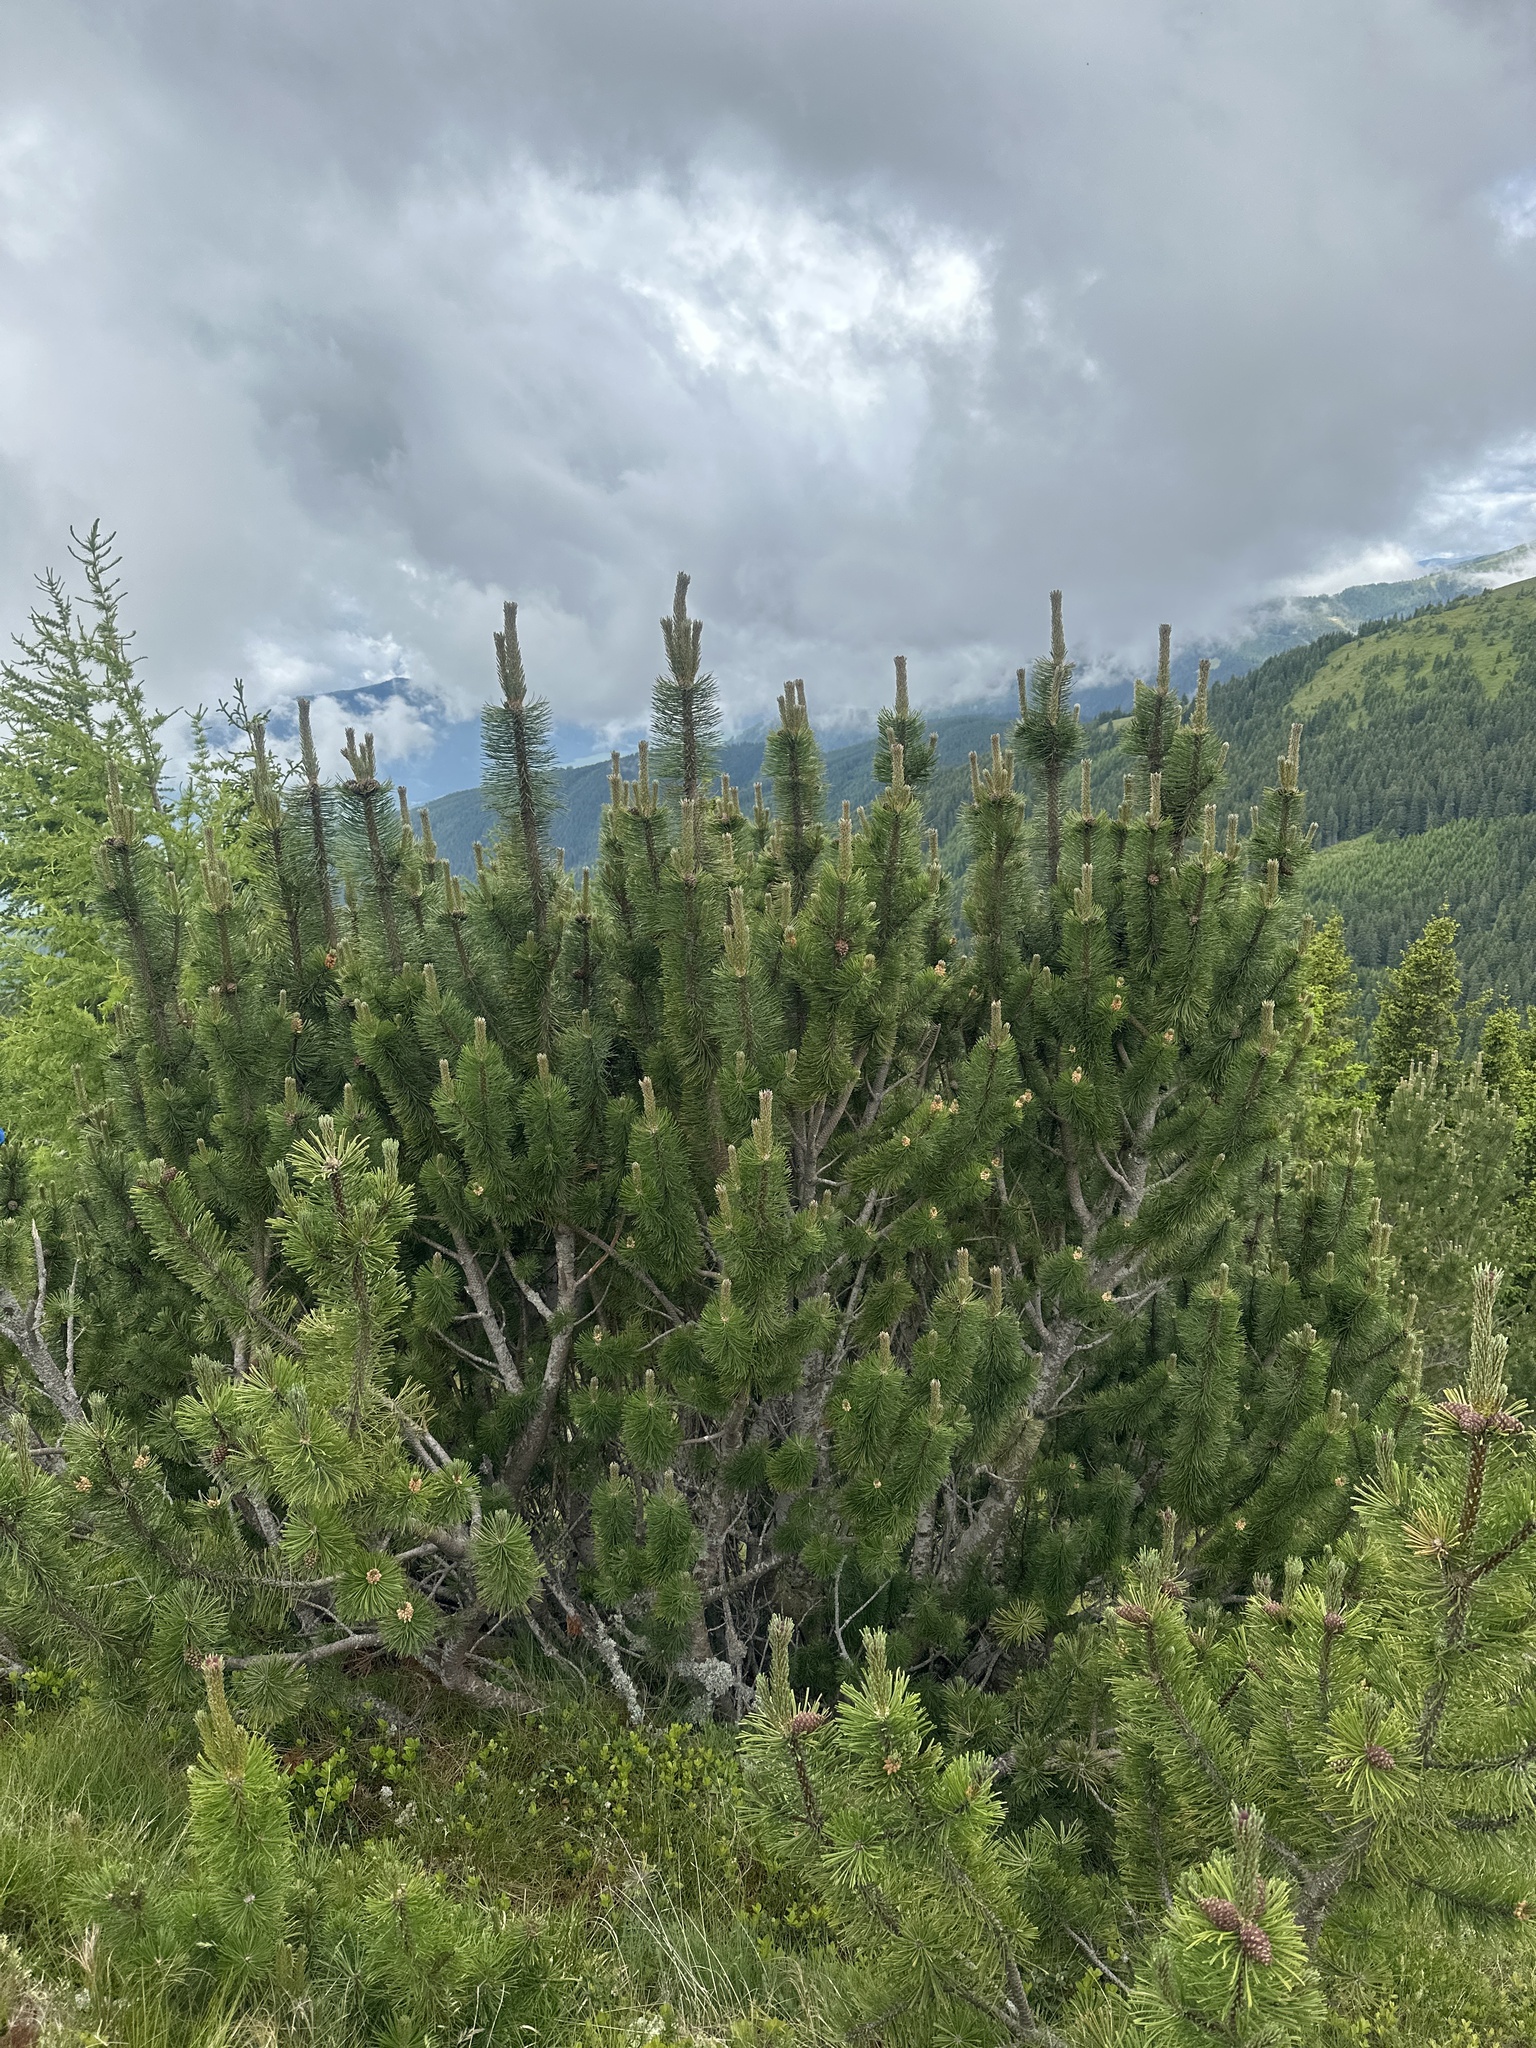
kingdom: Plantae
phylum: Tracheophyta
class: Pinopsida
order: Pinales
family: Pinaceae
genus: Pinus
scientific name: Pinus mugo
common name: Mugo pine
